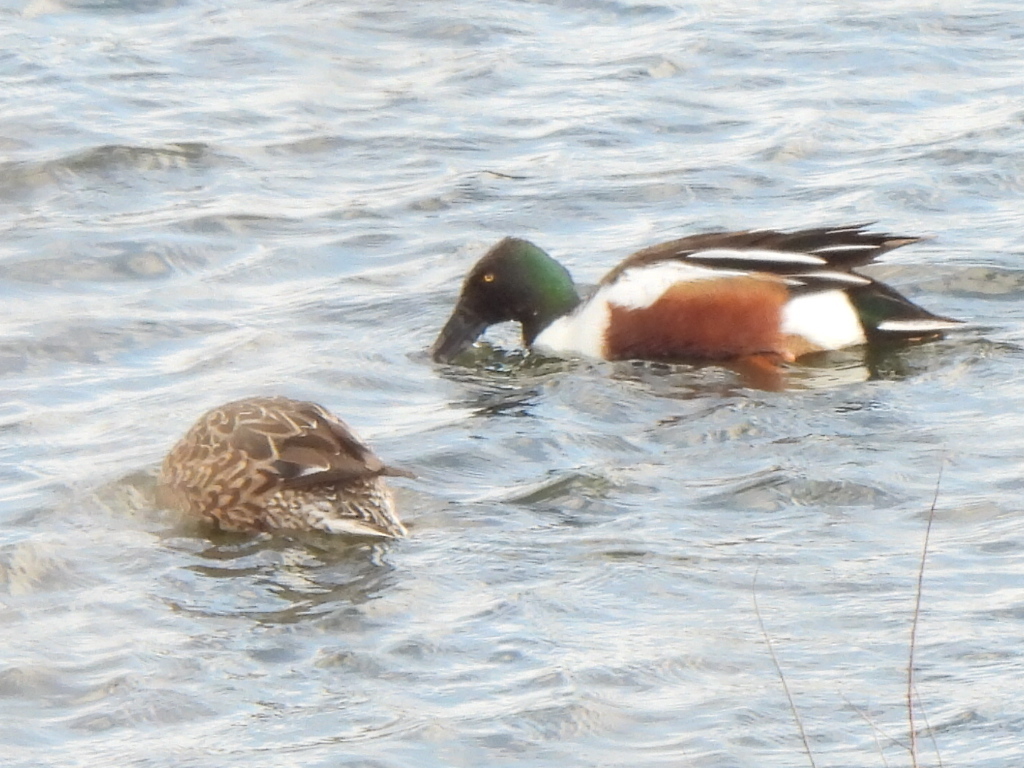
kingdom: Animalia
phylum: Chordata
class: Aves
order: Anseriformes
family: Anatidae
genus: Spatula
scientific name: Spatula clypeata
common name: Northern shoveler
